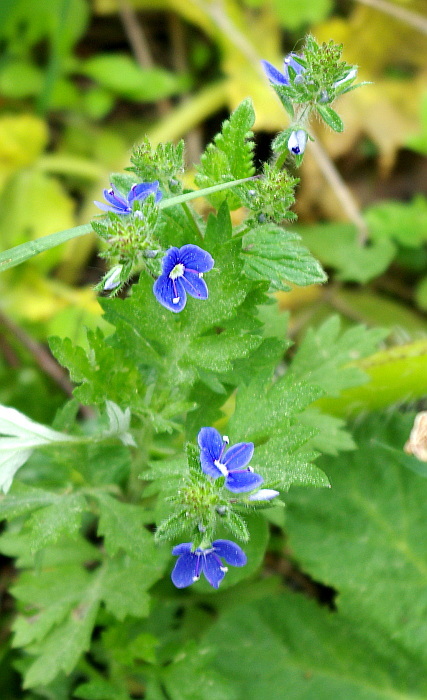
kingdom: Plantae
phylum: Tracheophyta
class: Magnoliopsida
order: Lamiales
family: Plantaginaceae
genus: Veronica
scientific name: Veronica chamaedrys
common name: Germander speedwell
